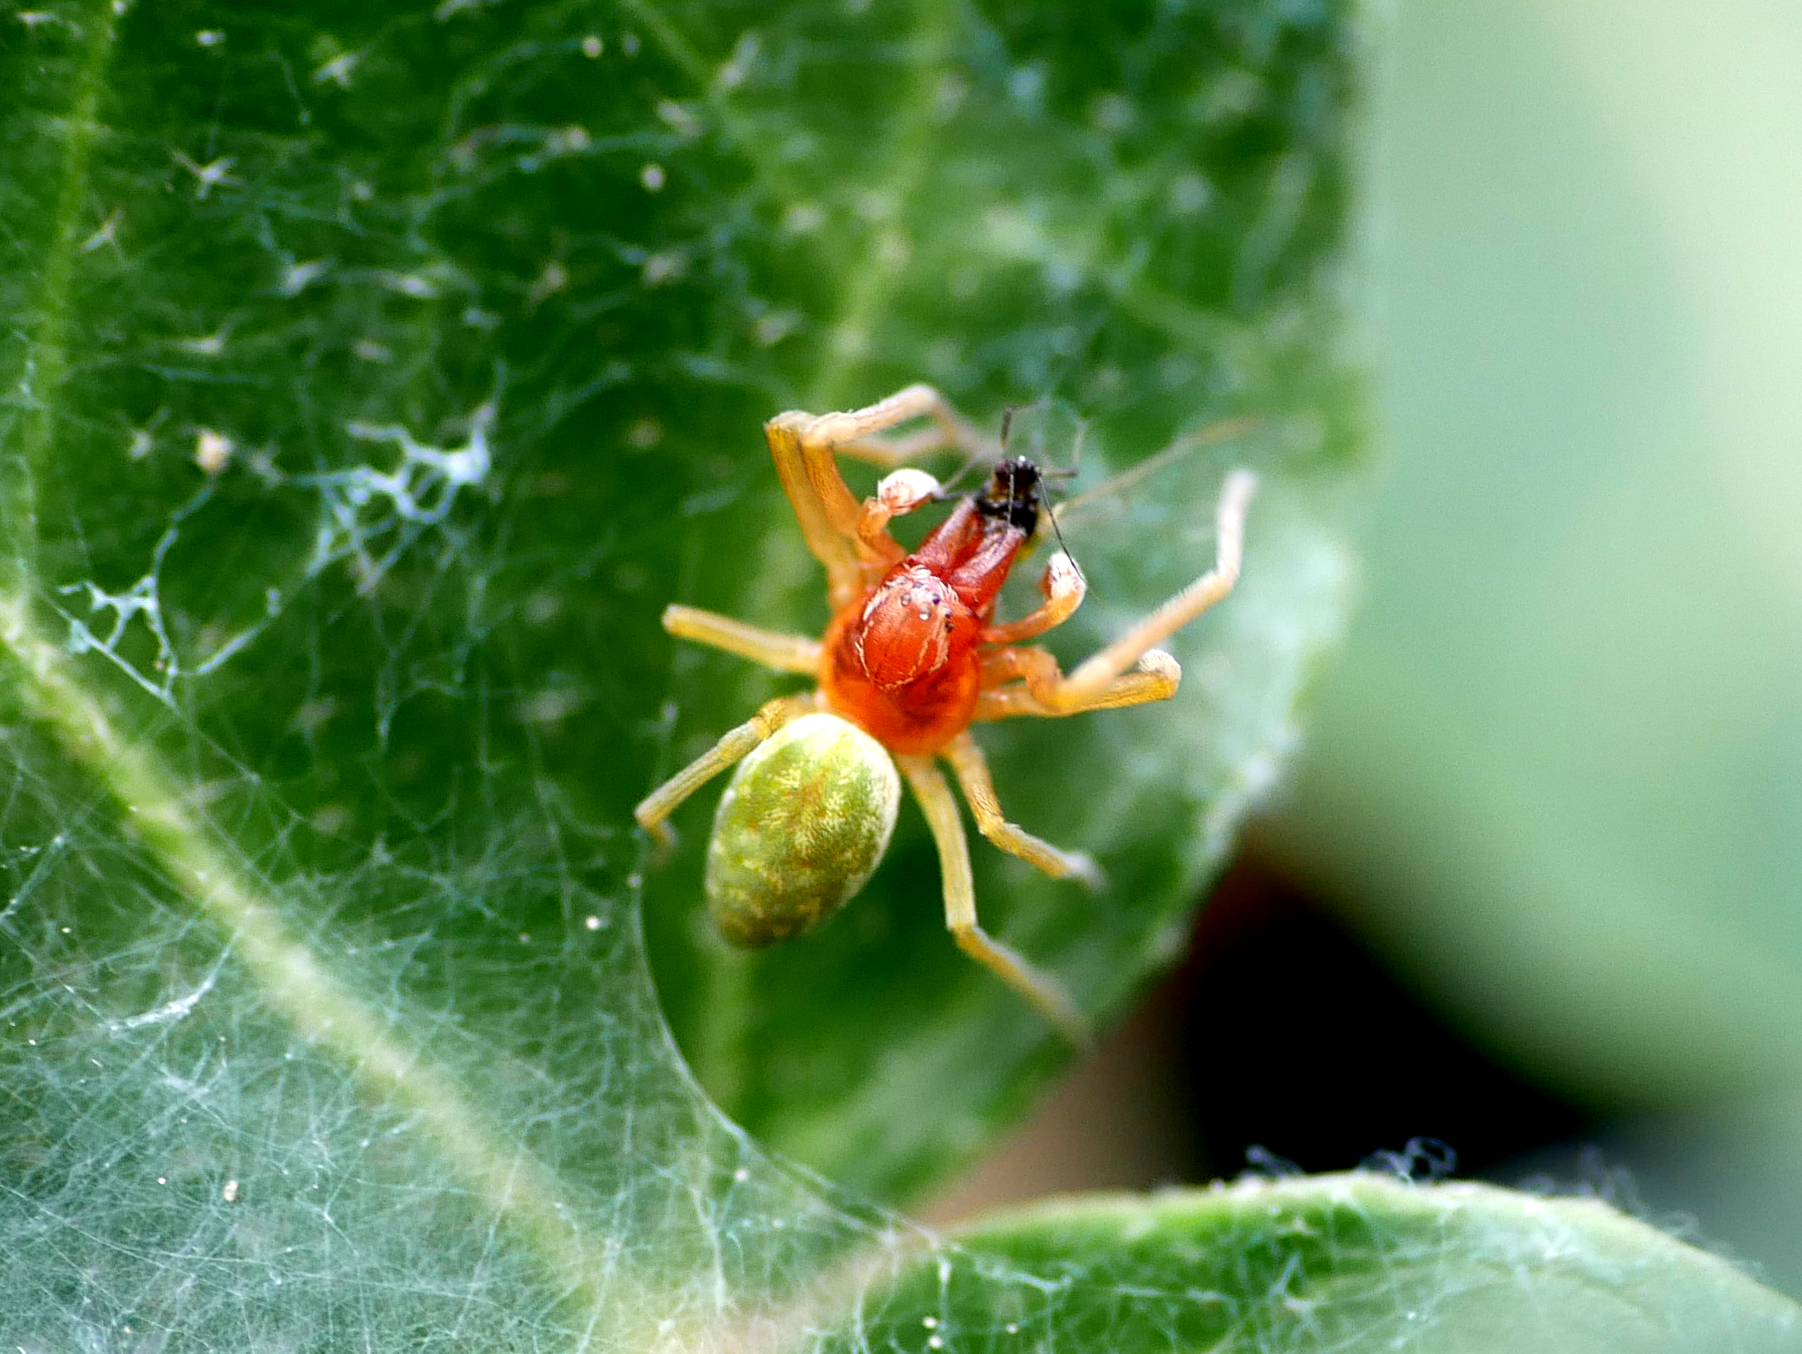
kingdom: Animalia
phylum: Arthropoda
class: Arachnida
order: Araneae
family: Dictynidae
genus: Nigma
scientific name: Nigma walckenaeri
